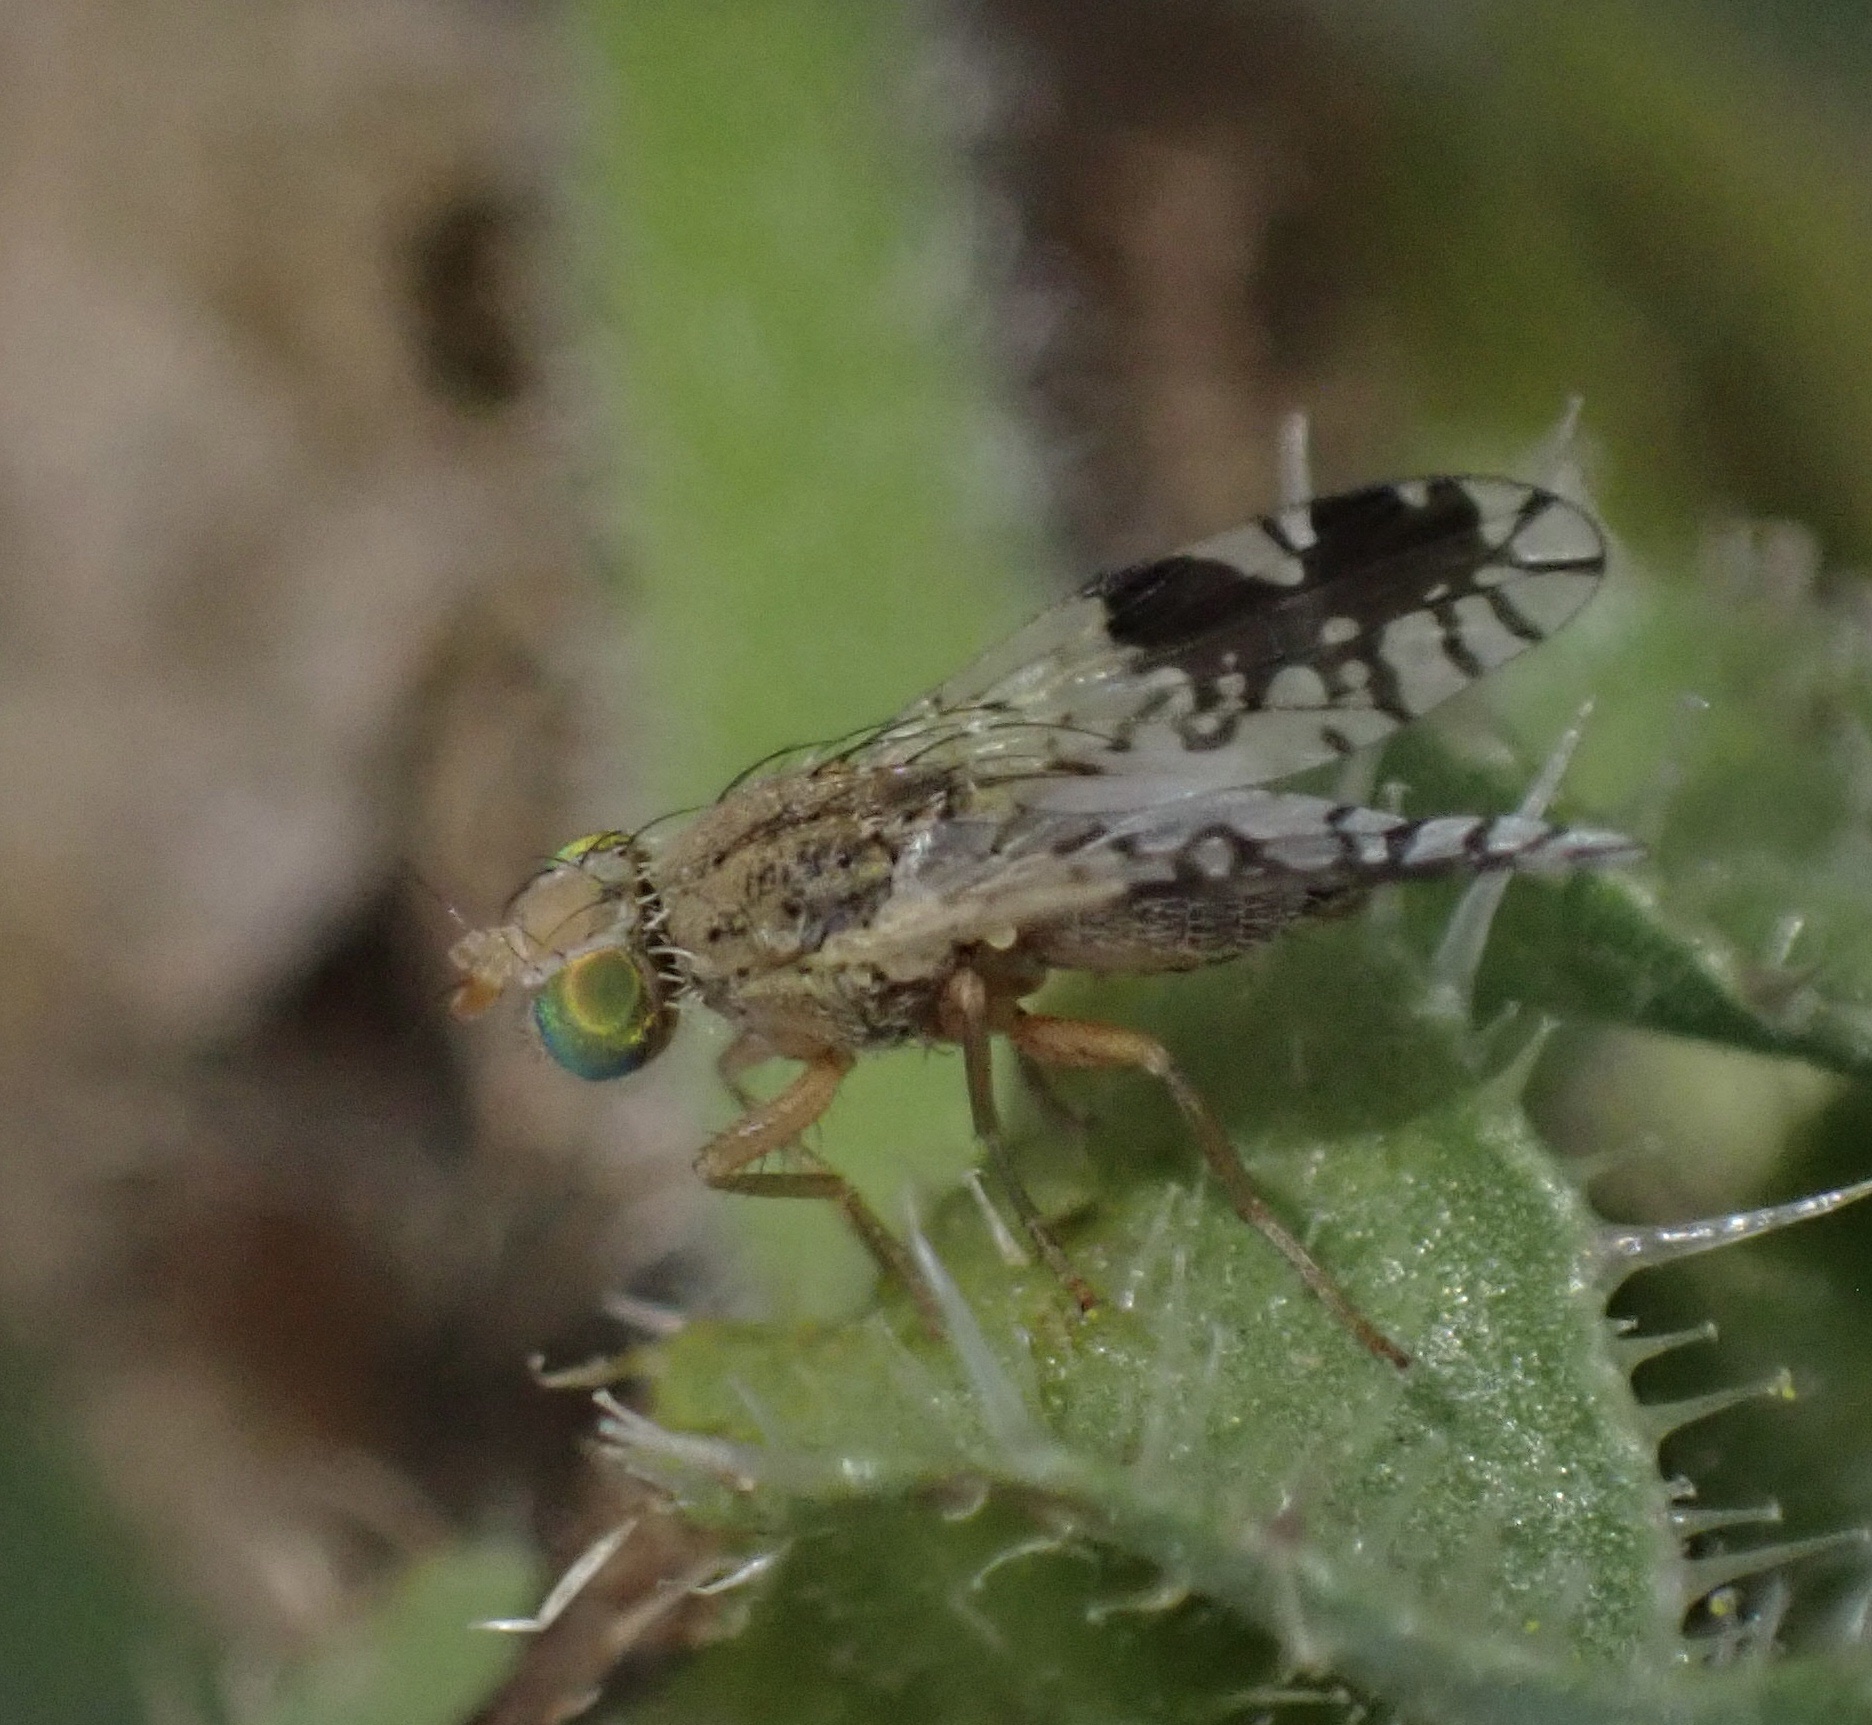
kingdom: Animalia
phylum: Arthropoda
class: Insecta
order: Diptera
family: Tephritidae
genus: Tephritis
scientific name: Tephritis divisa
